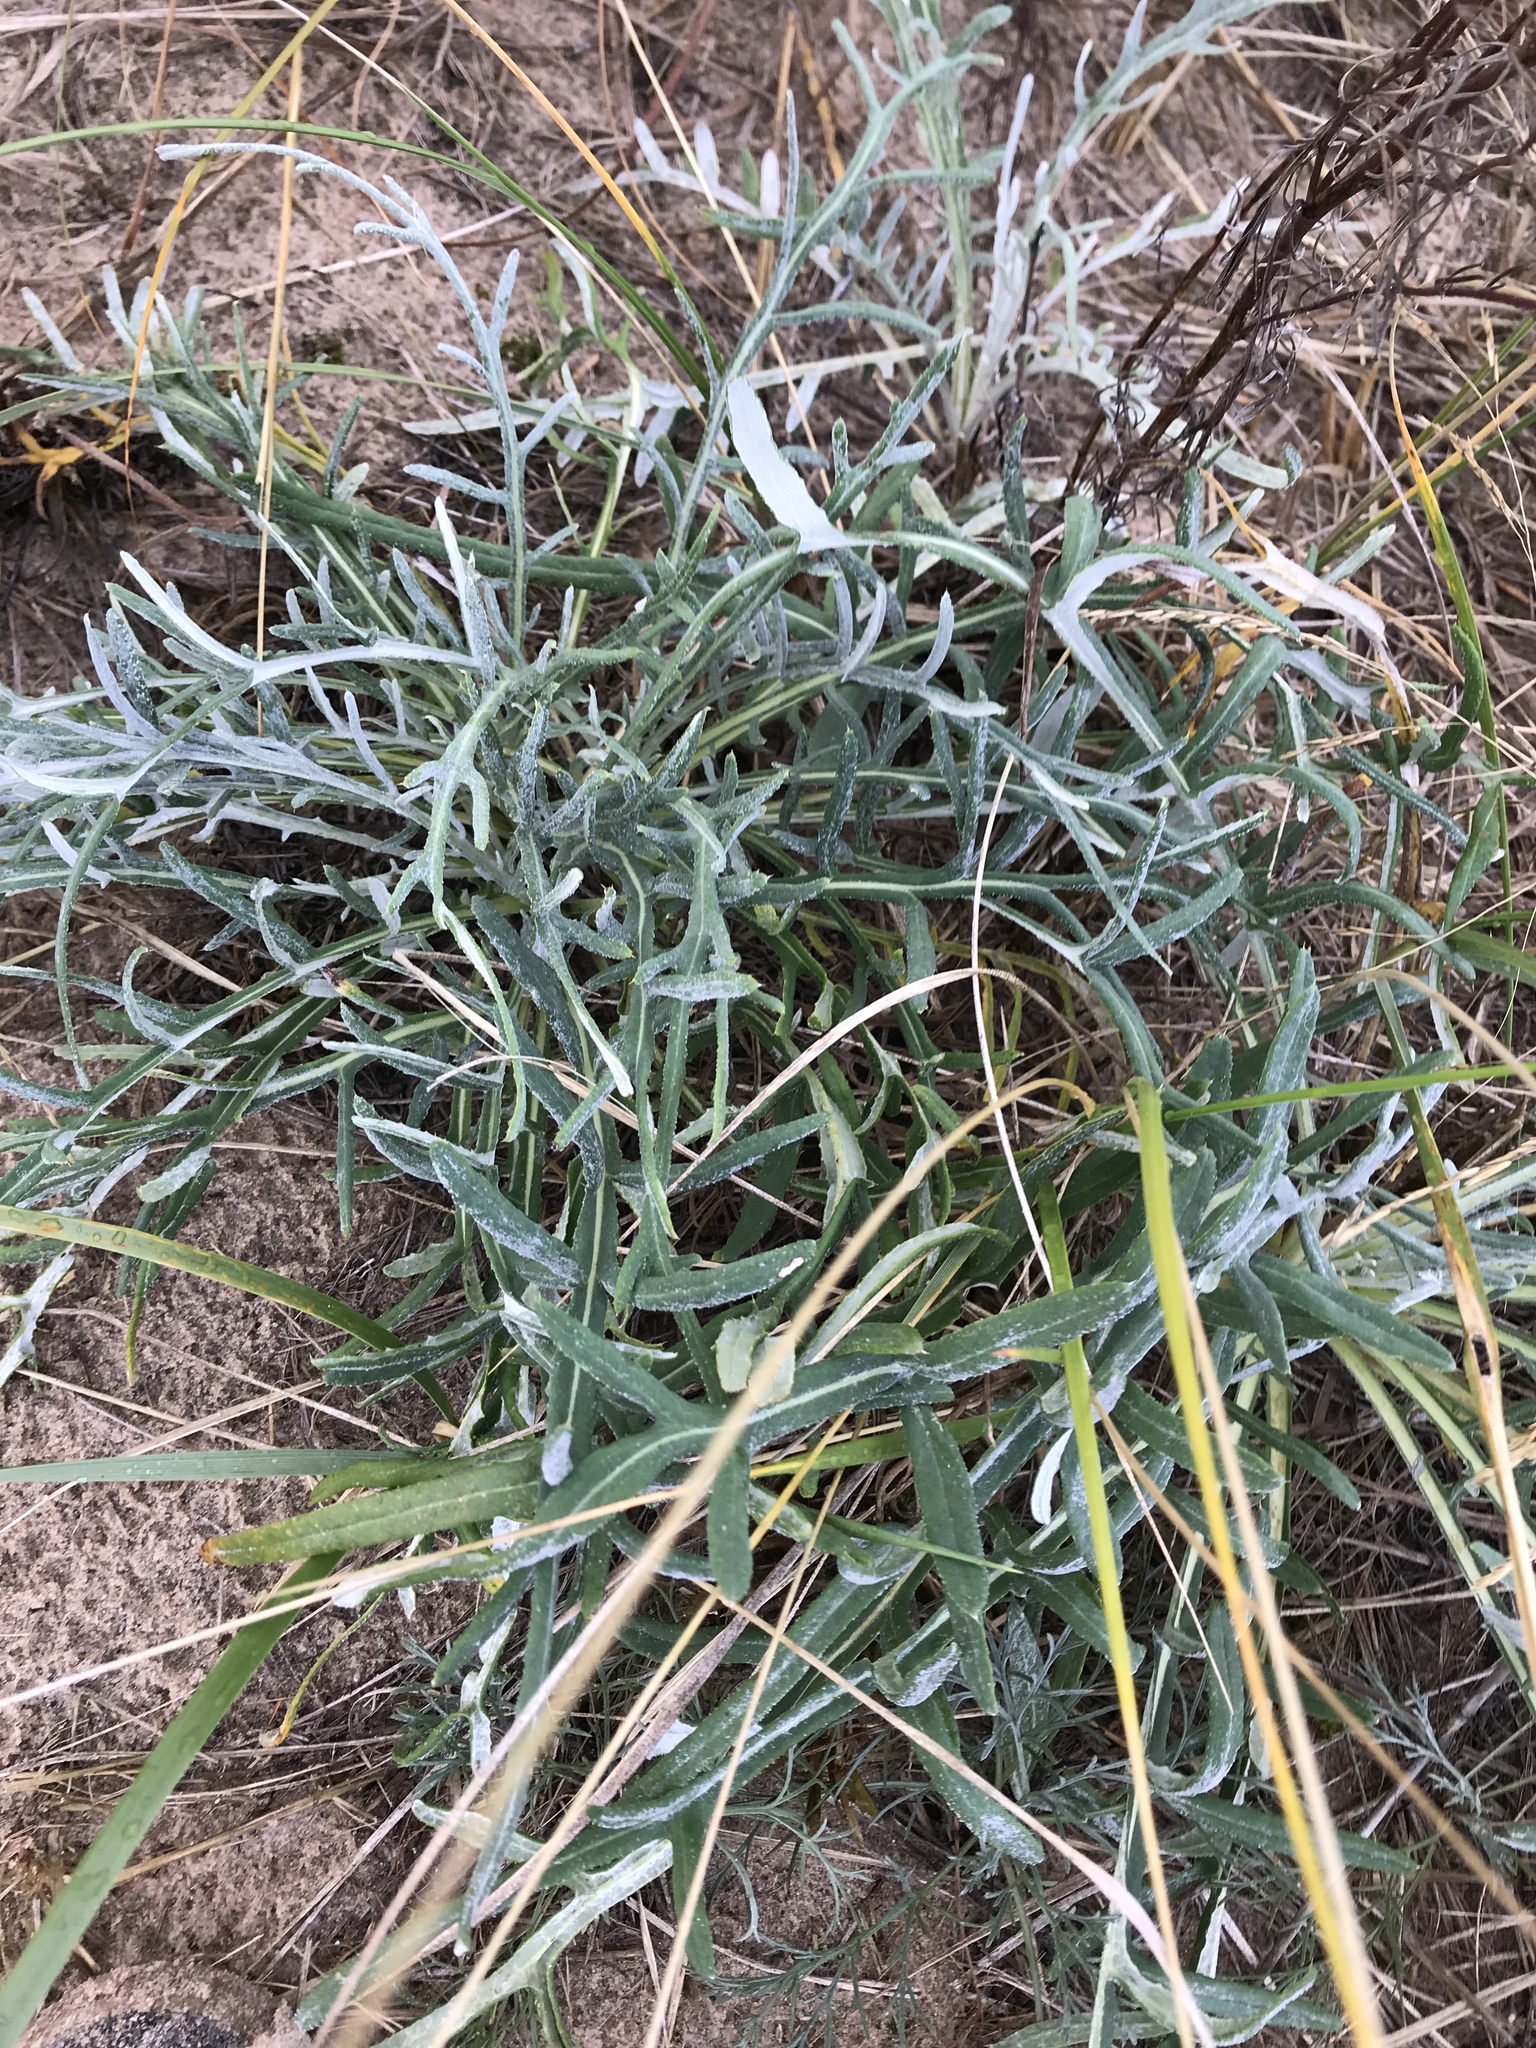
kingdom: Plantae
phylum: Tracheophyta
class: Magnoliopsida
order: Asterales
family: Asteraceae
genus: Cirsium
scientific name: Cirsium pitcheri
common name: Dune thistle
